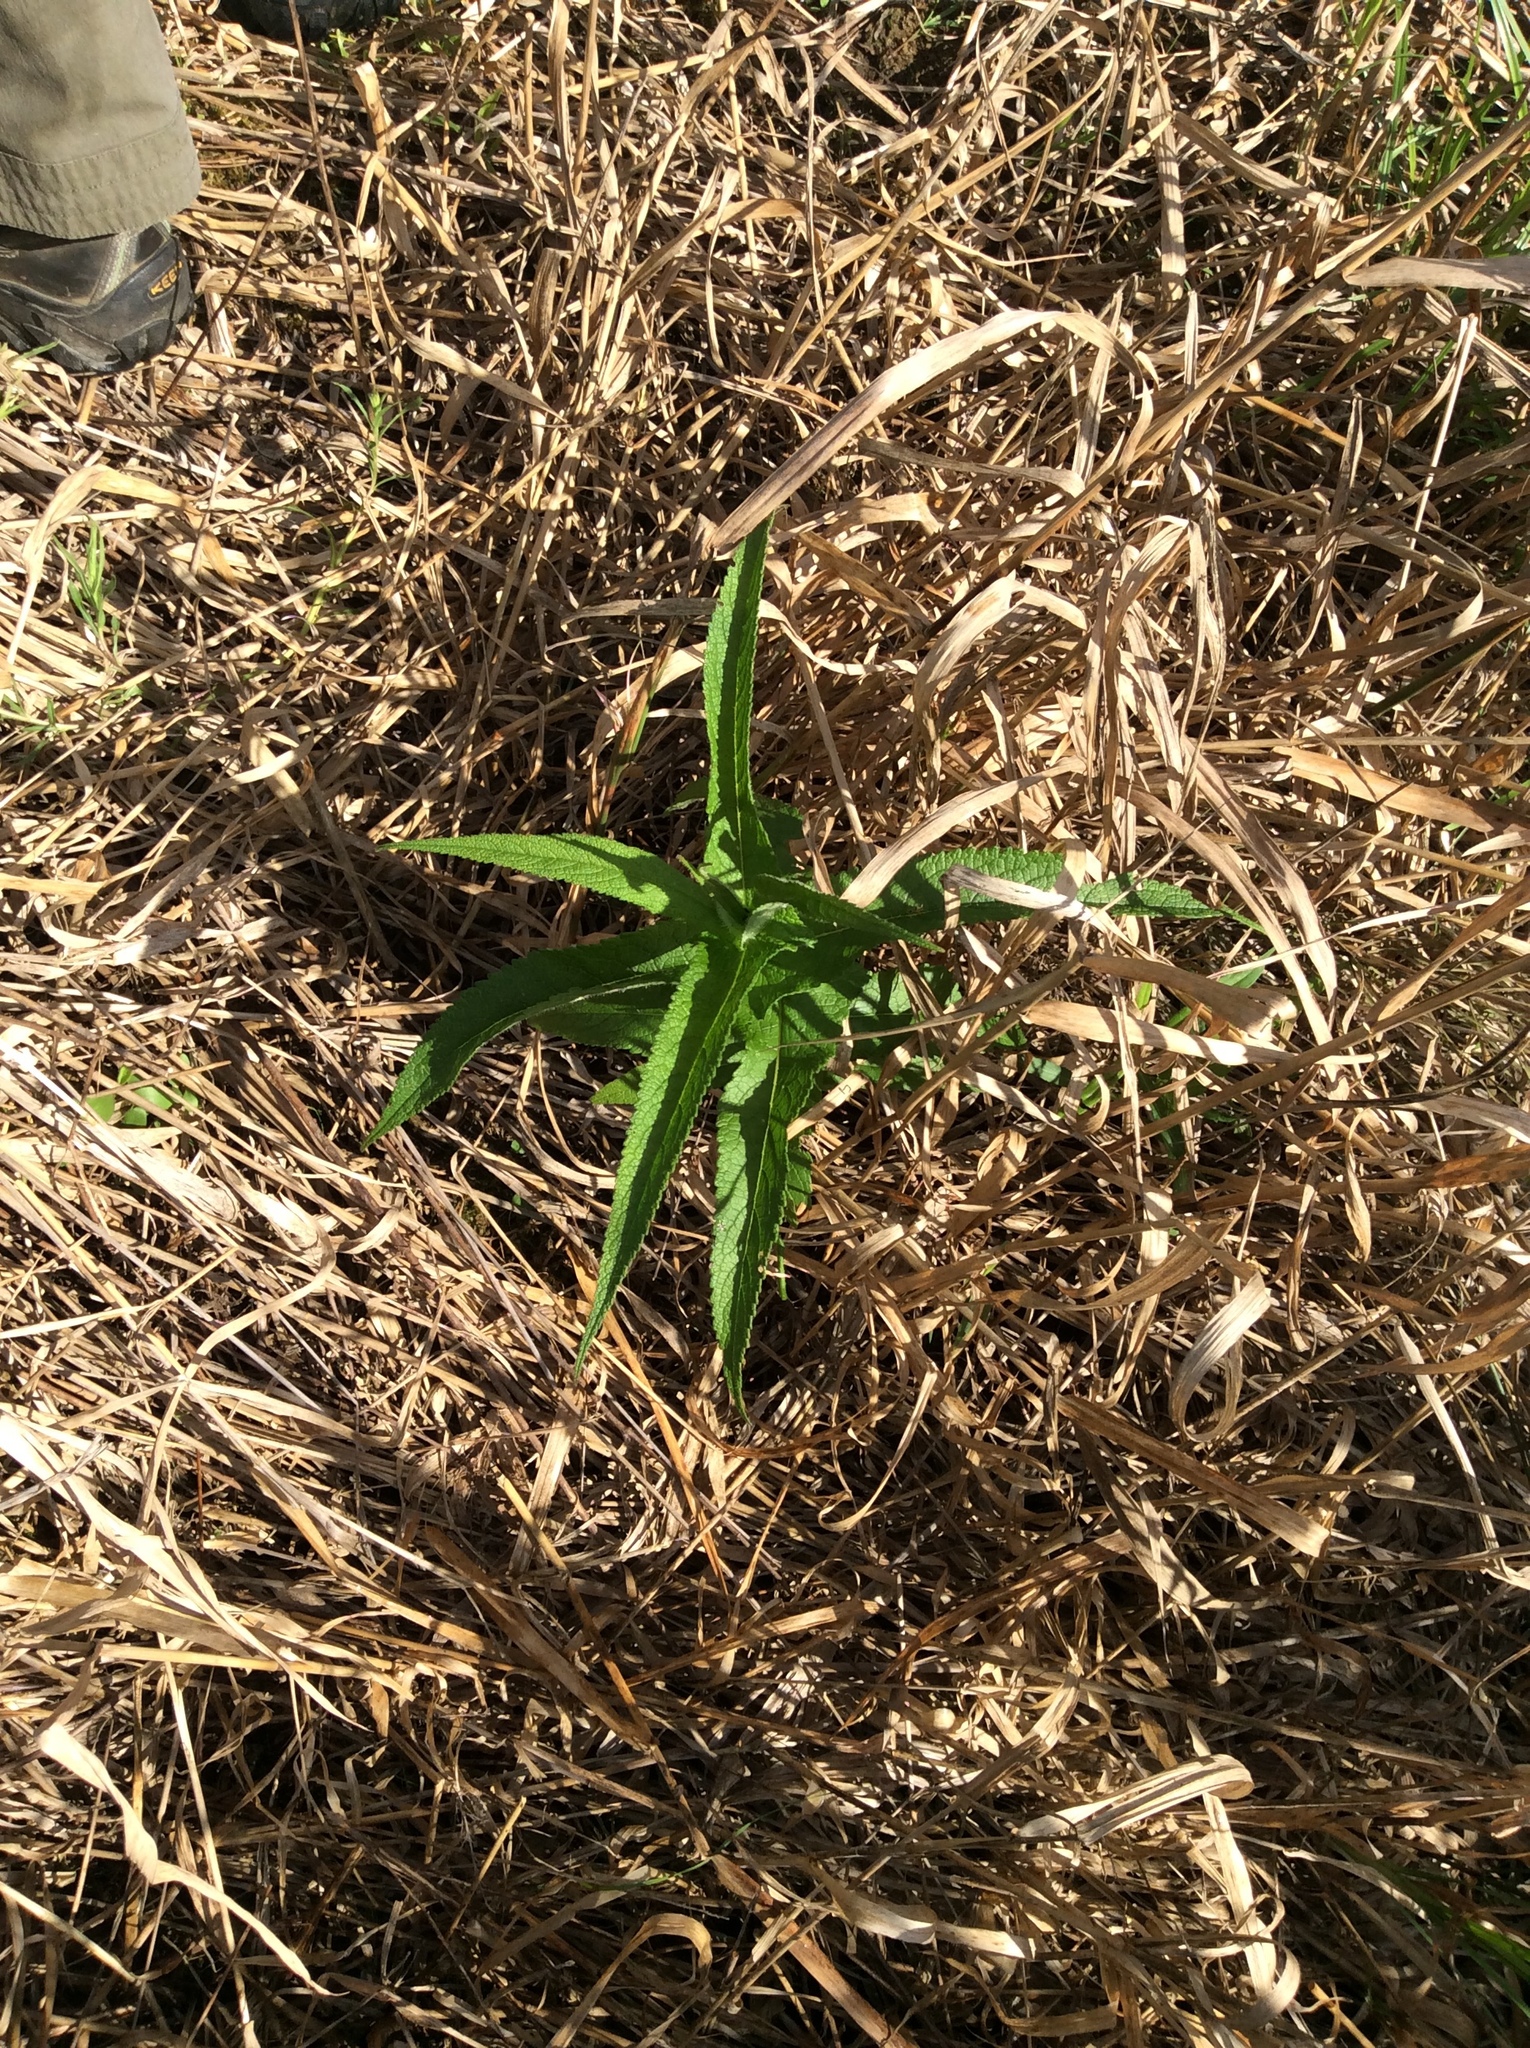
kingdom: Plantae
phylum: Tracheophyta
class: Magnoliopsida
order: Asterales
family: Asteraceae
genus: Eupatorium
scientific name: Eupatorium perfoliatum
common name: Boneset
